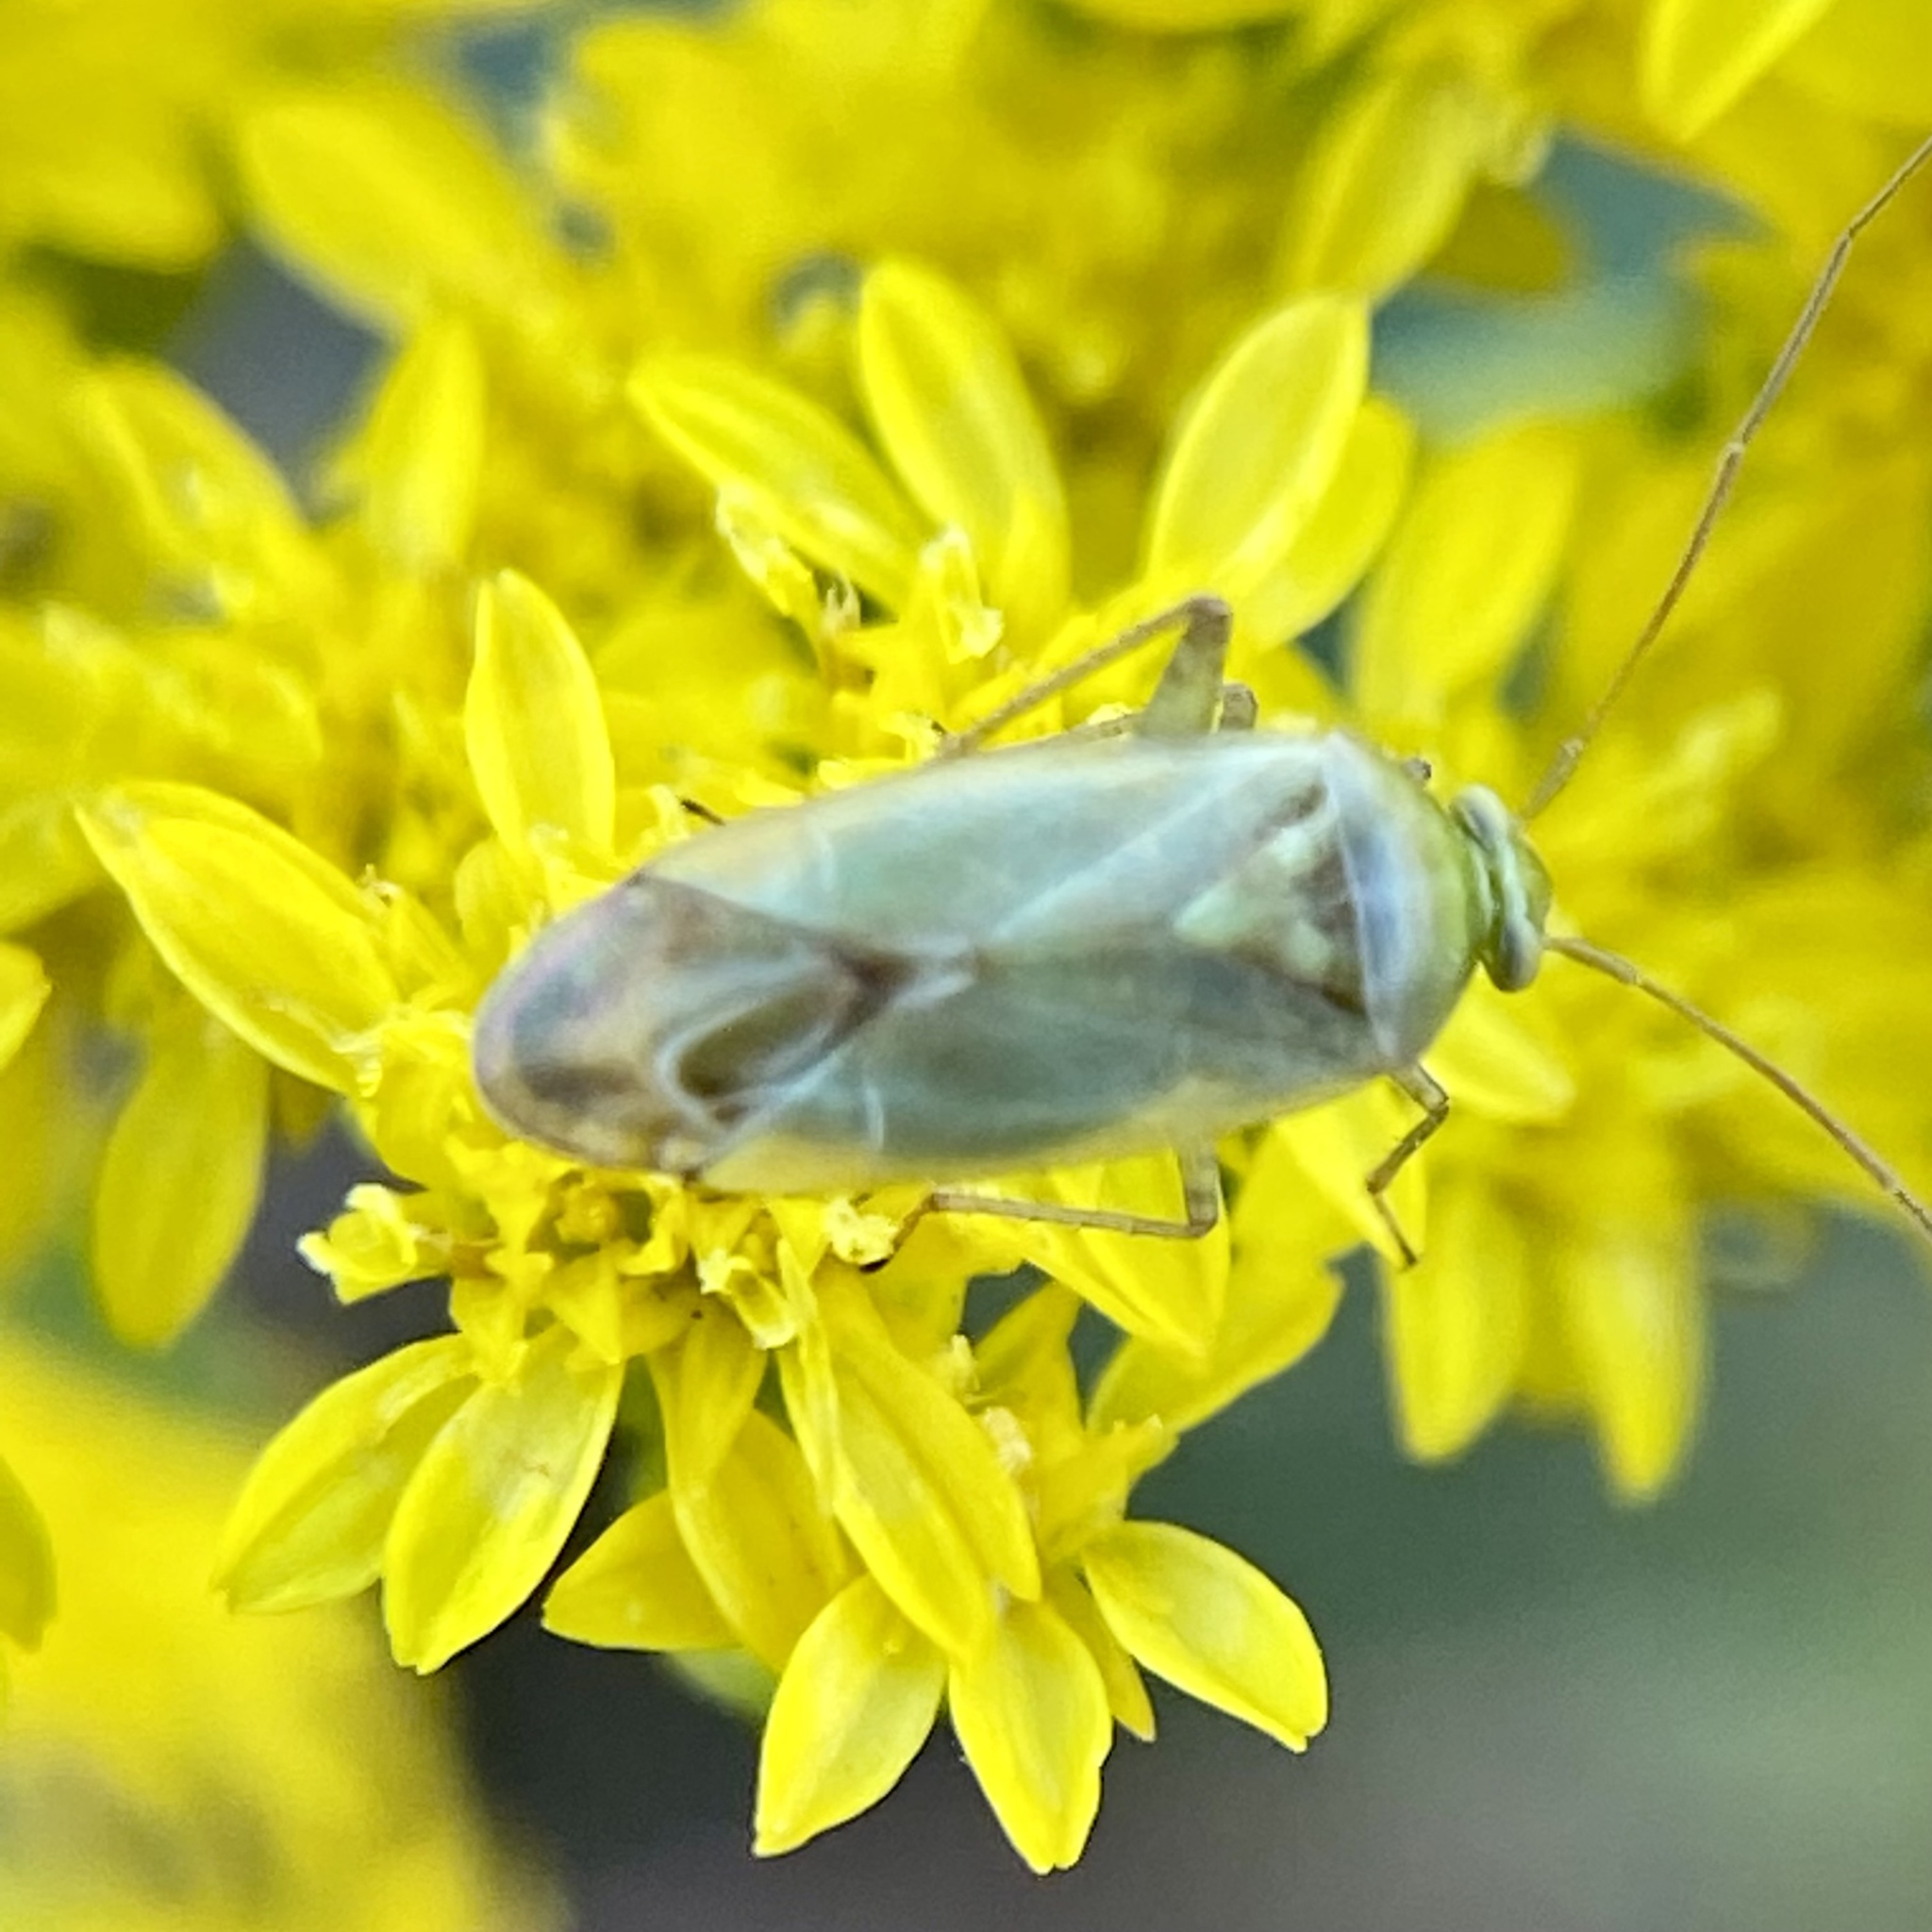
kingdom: Animalia
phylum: Arthropoda
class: Insecta
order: Hemiptera
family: Miridae
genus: Taylorilygus
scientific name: Taylorilygus apicalis
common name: Plant bug
